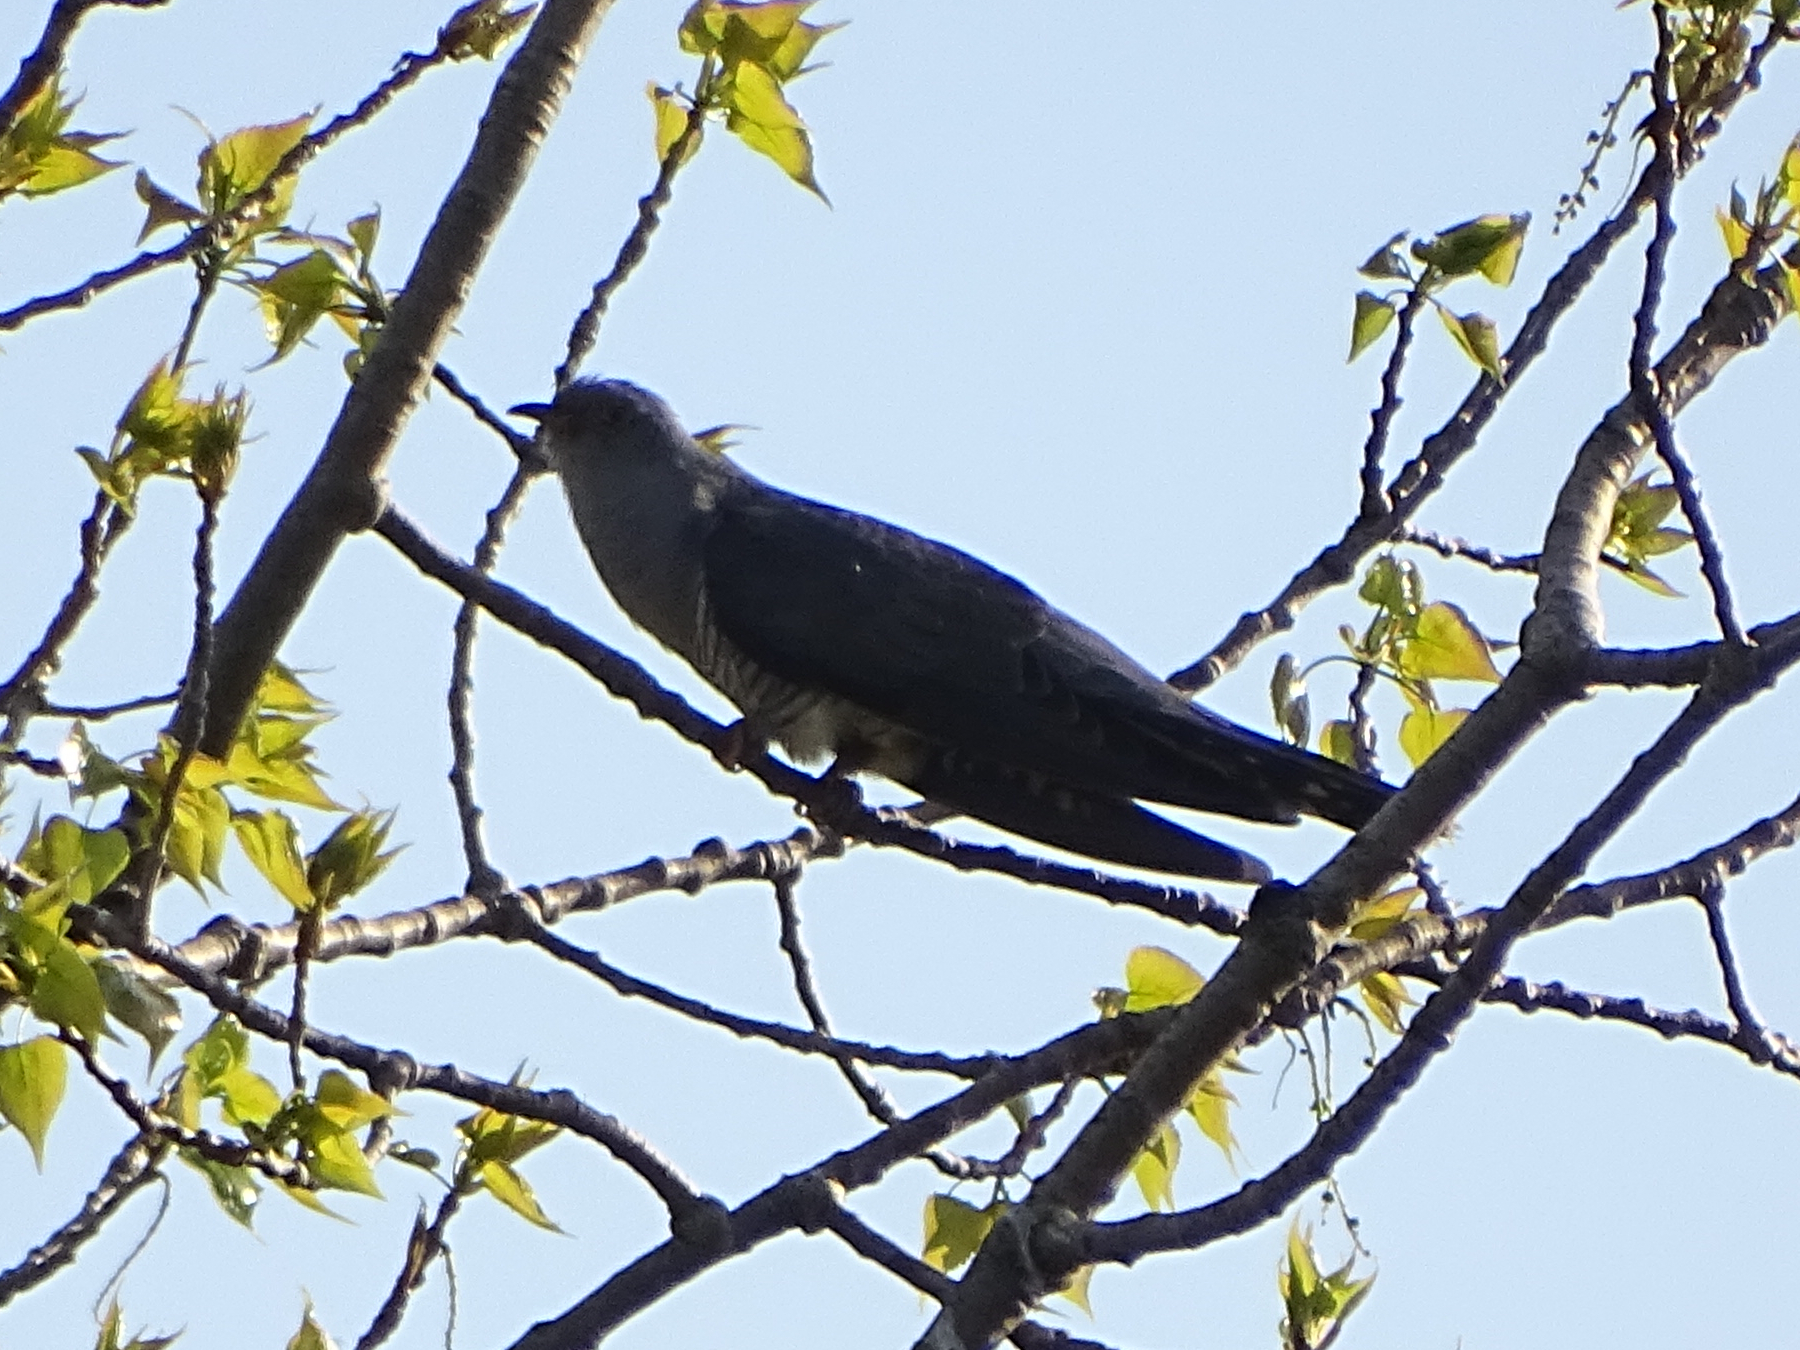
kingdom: Animalia
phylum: Chordata
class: Aves
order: Cuculiformes
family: Cuculidae
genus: Cuculus
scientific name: Cuculus canorus
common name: Common cuckoo
